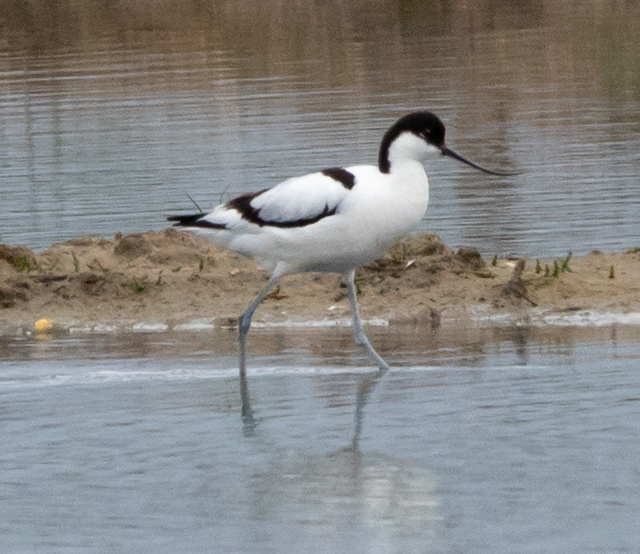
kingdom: Animalia
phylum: Chordata
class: Aves
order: Charadriiformes
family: Recurvirostridae
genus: Recurvirostra
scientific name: Recurvirostra avosetta
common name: Pied avocet
